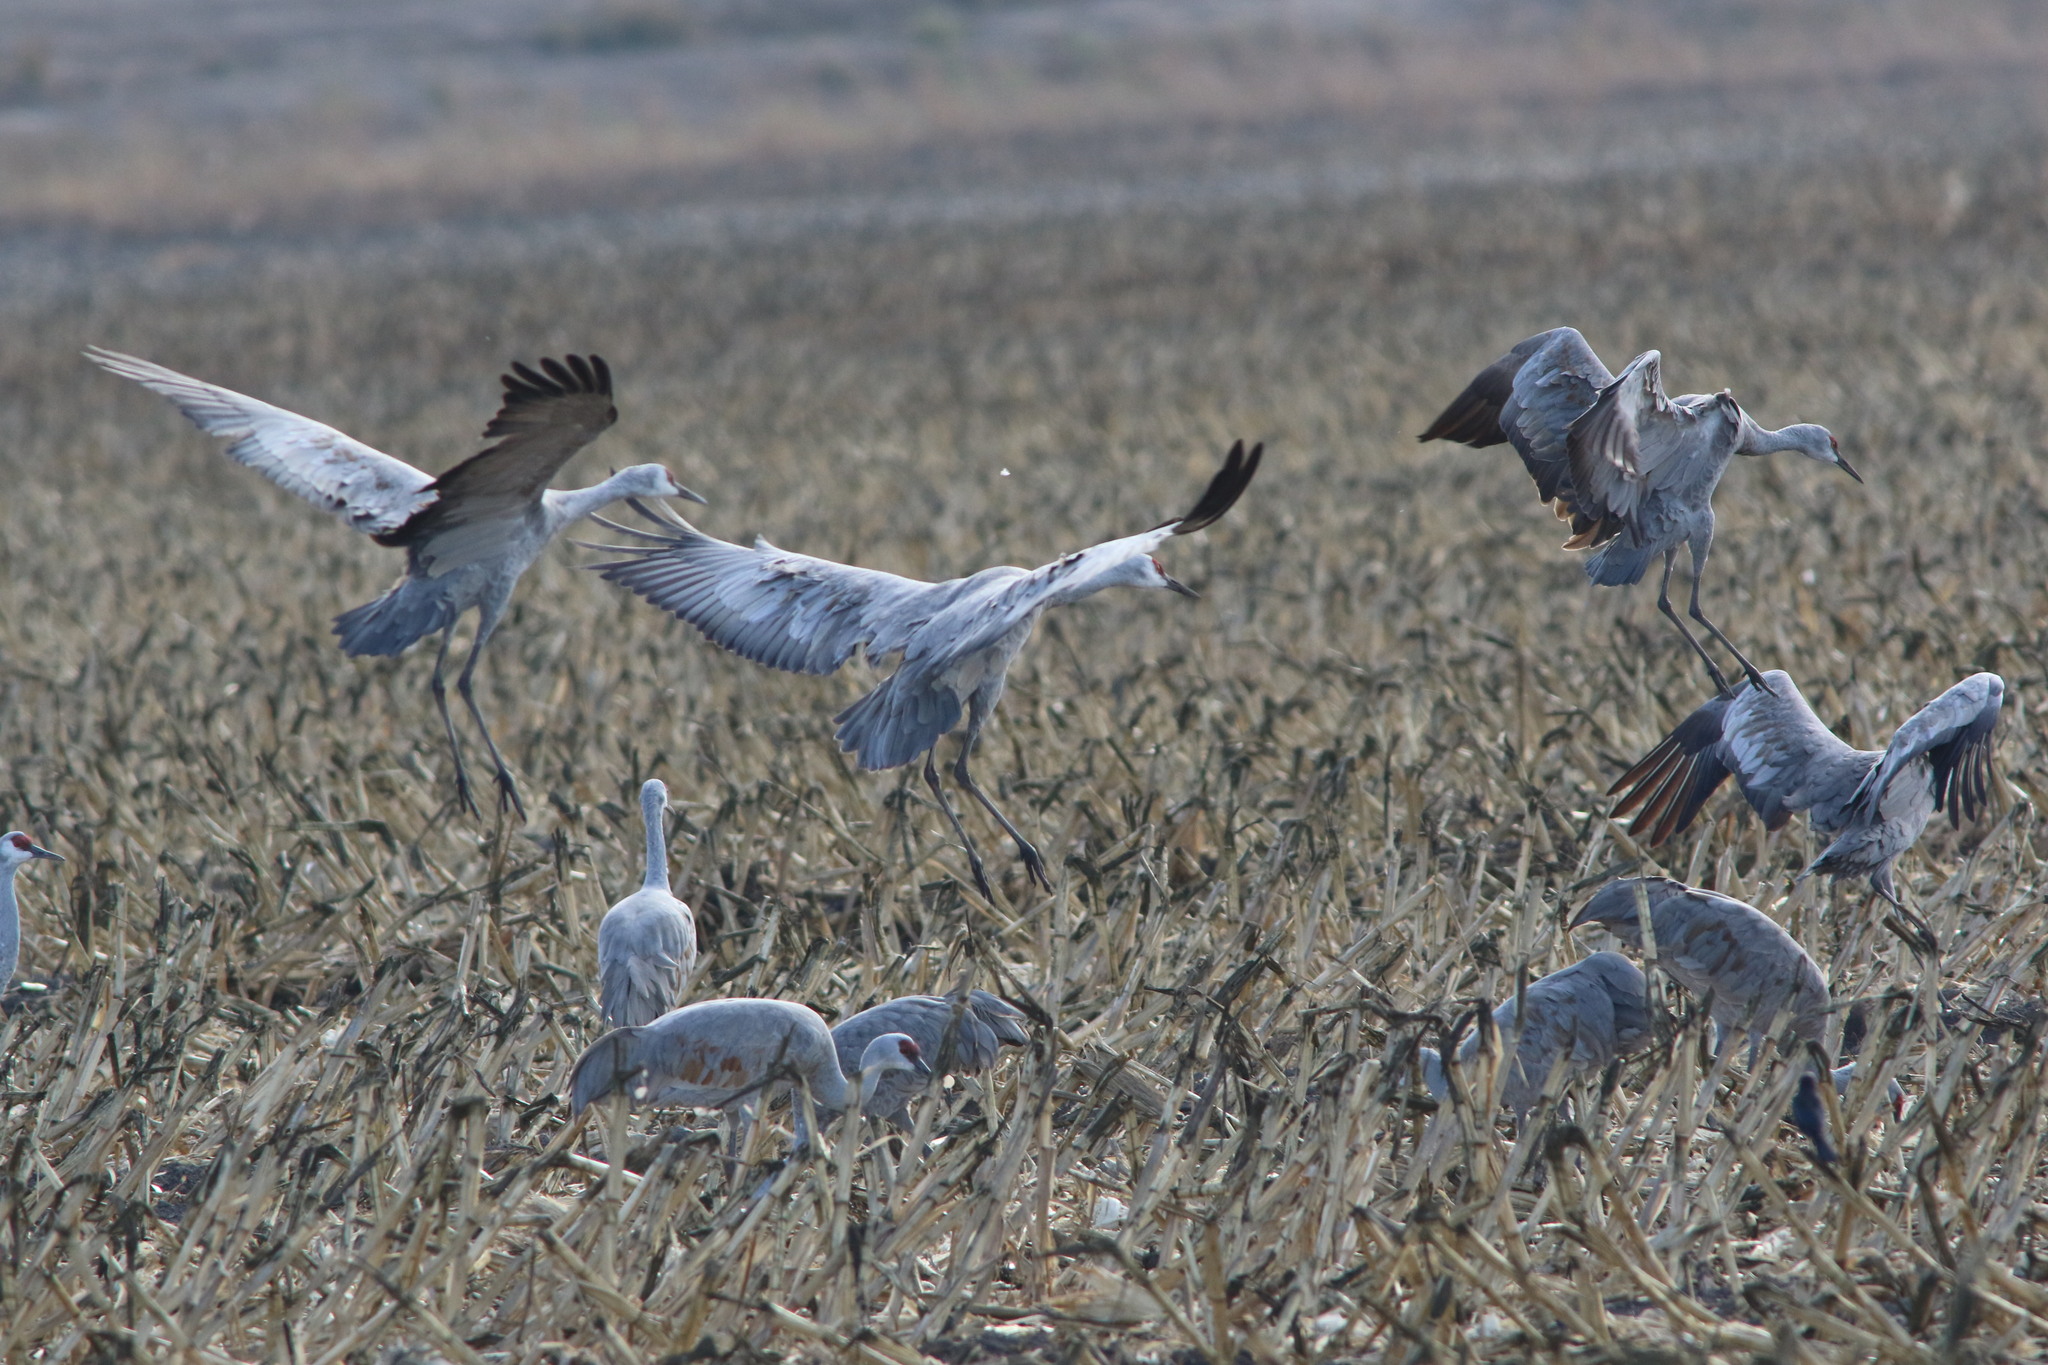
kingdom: Animalia
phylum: Chordata
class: Aves
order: Gruiformes
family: Gruidae
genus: Grus
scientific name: Grus canadensis
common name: Sandhill crane
